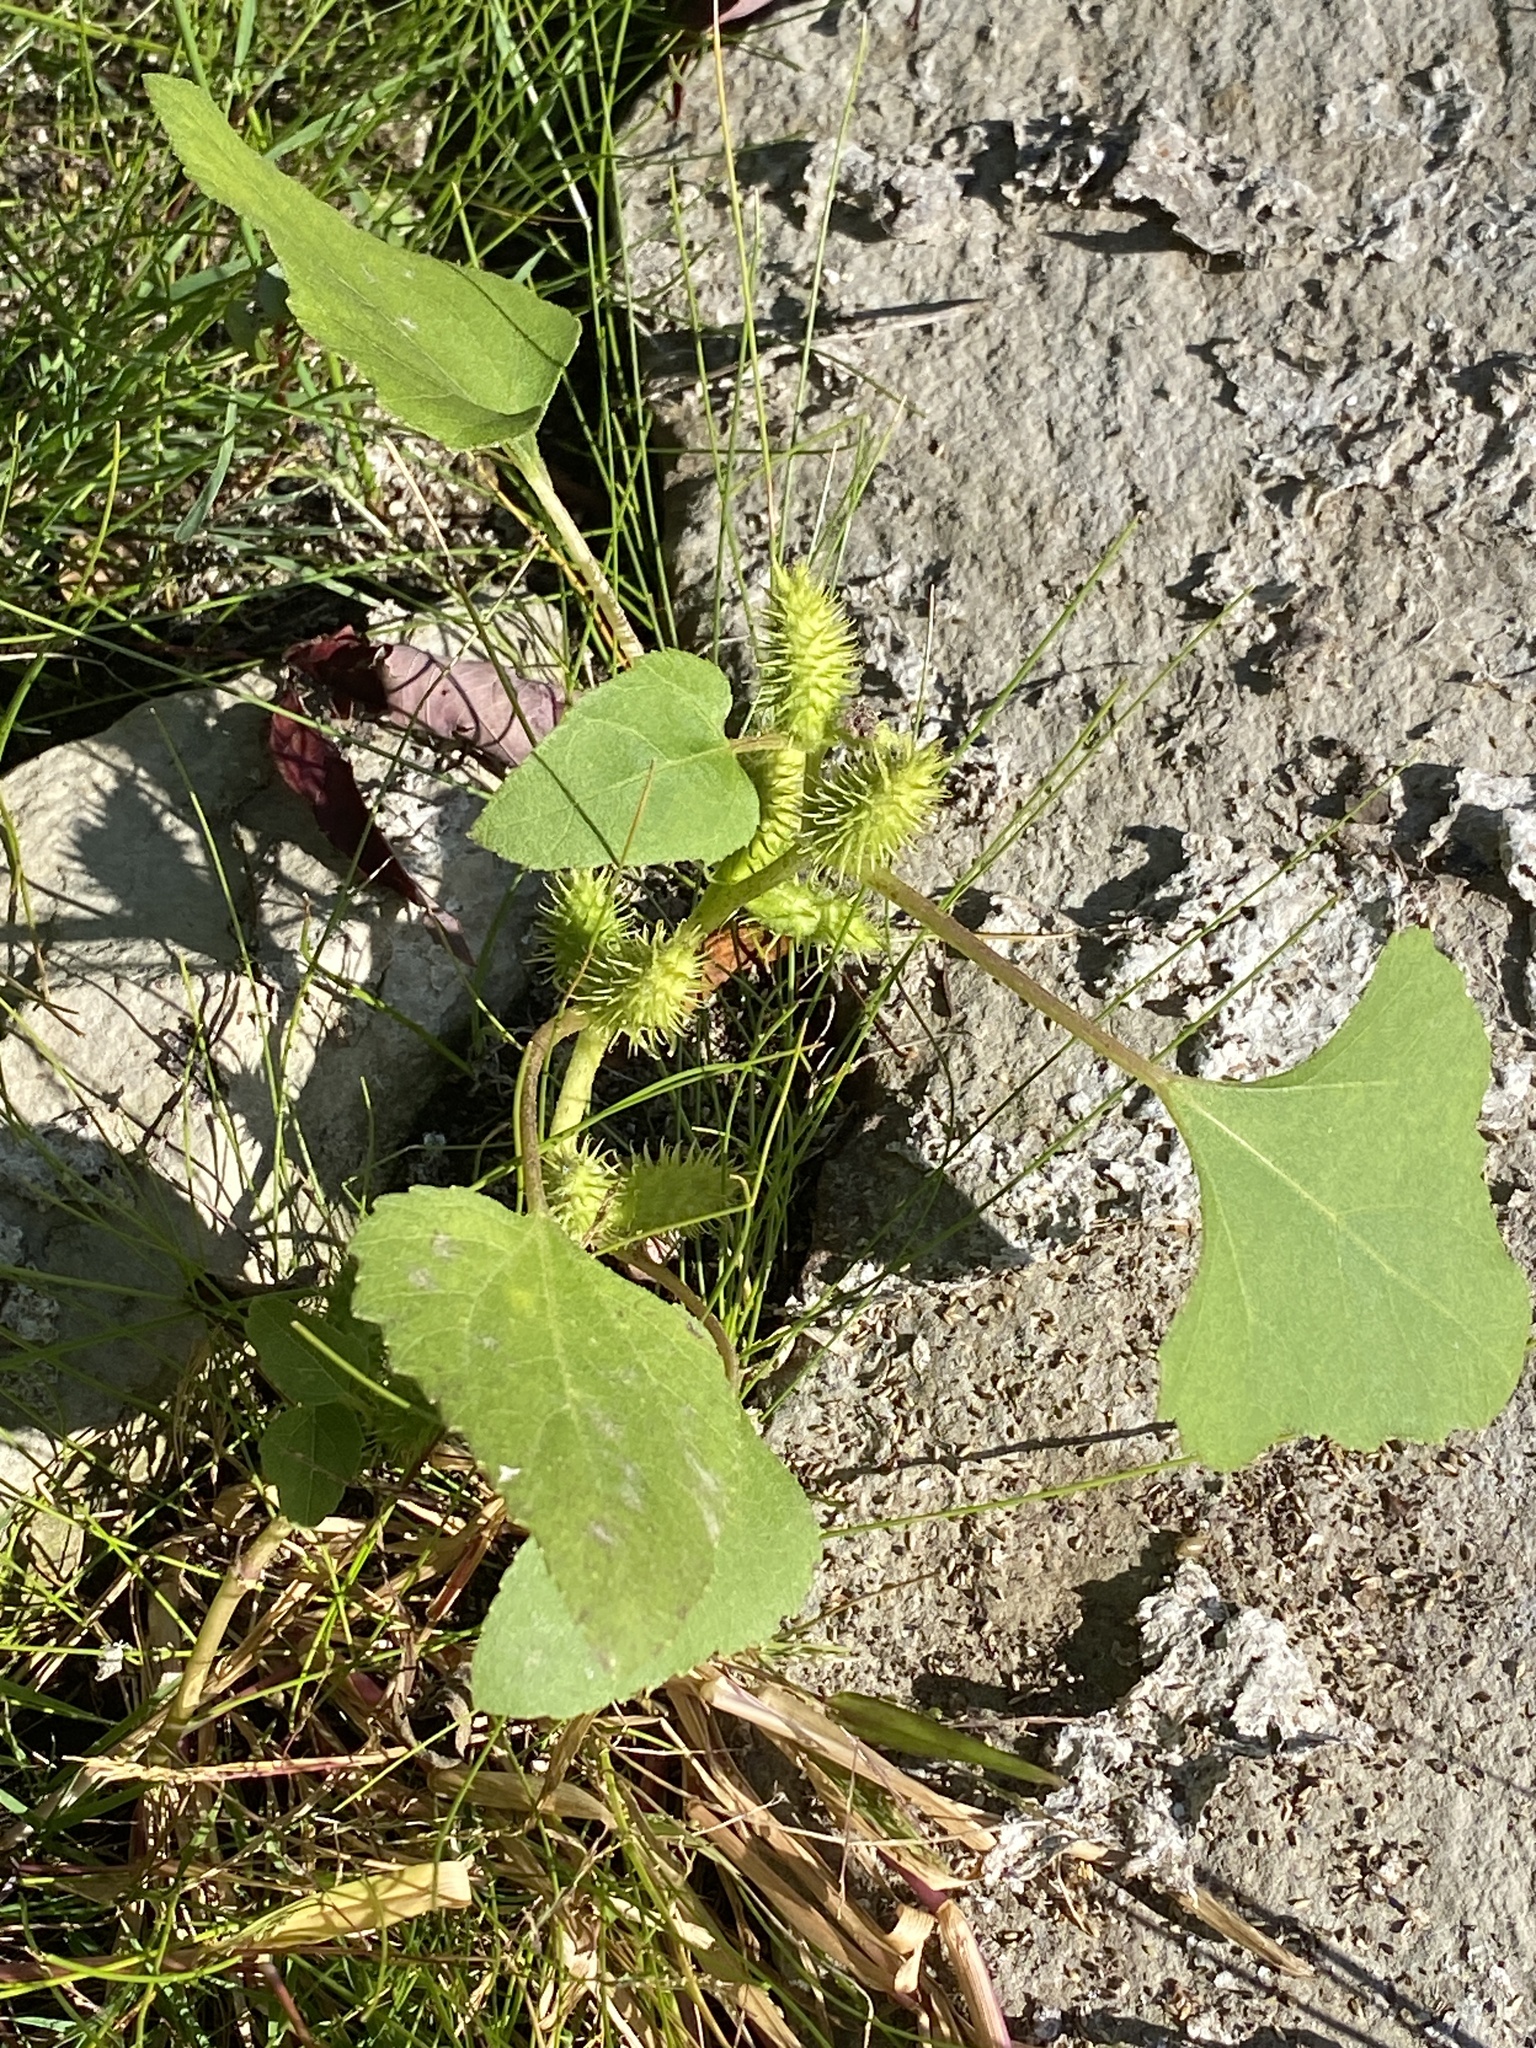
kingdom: Plantae
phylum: Tracheophyta
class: Magnoliopsida
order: Asterales
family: Asteraceae
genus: Xanthium
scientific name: Xanthium strumarium
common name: Rough cocklebur
